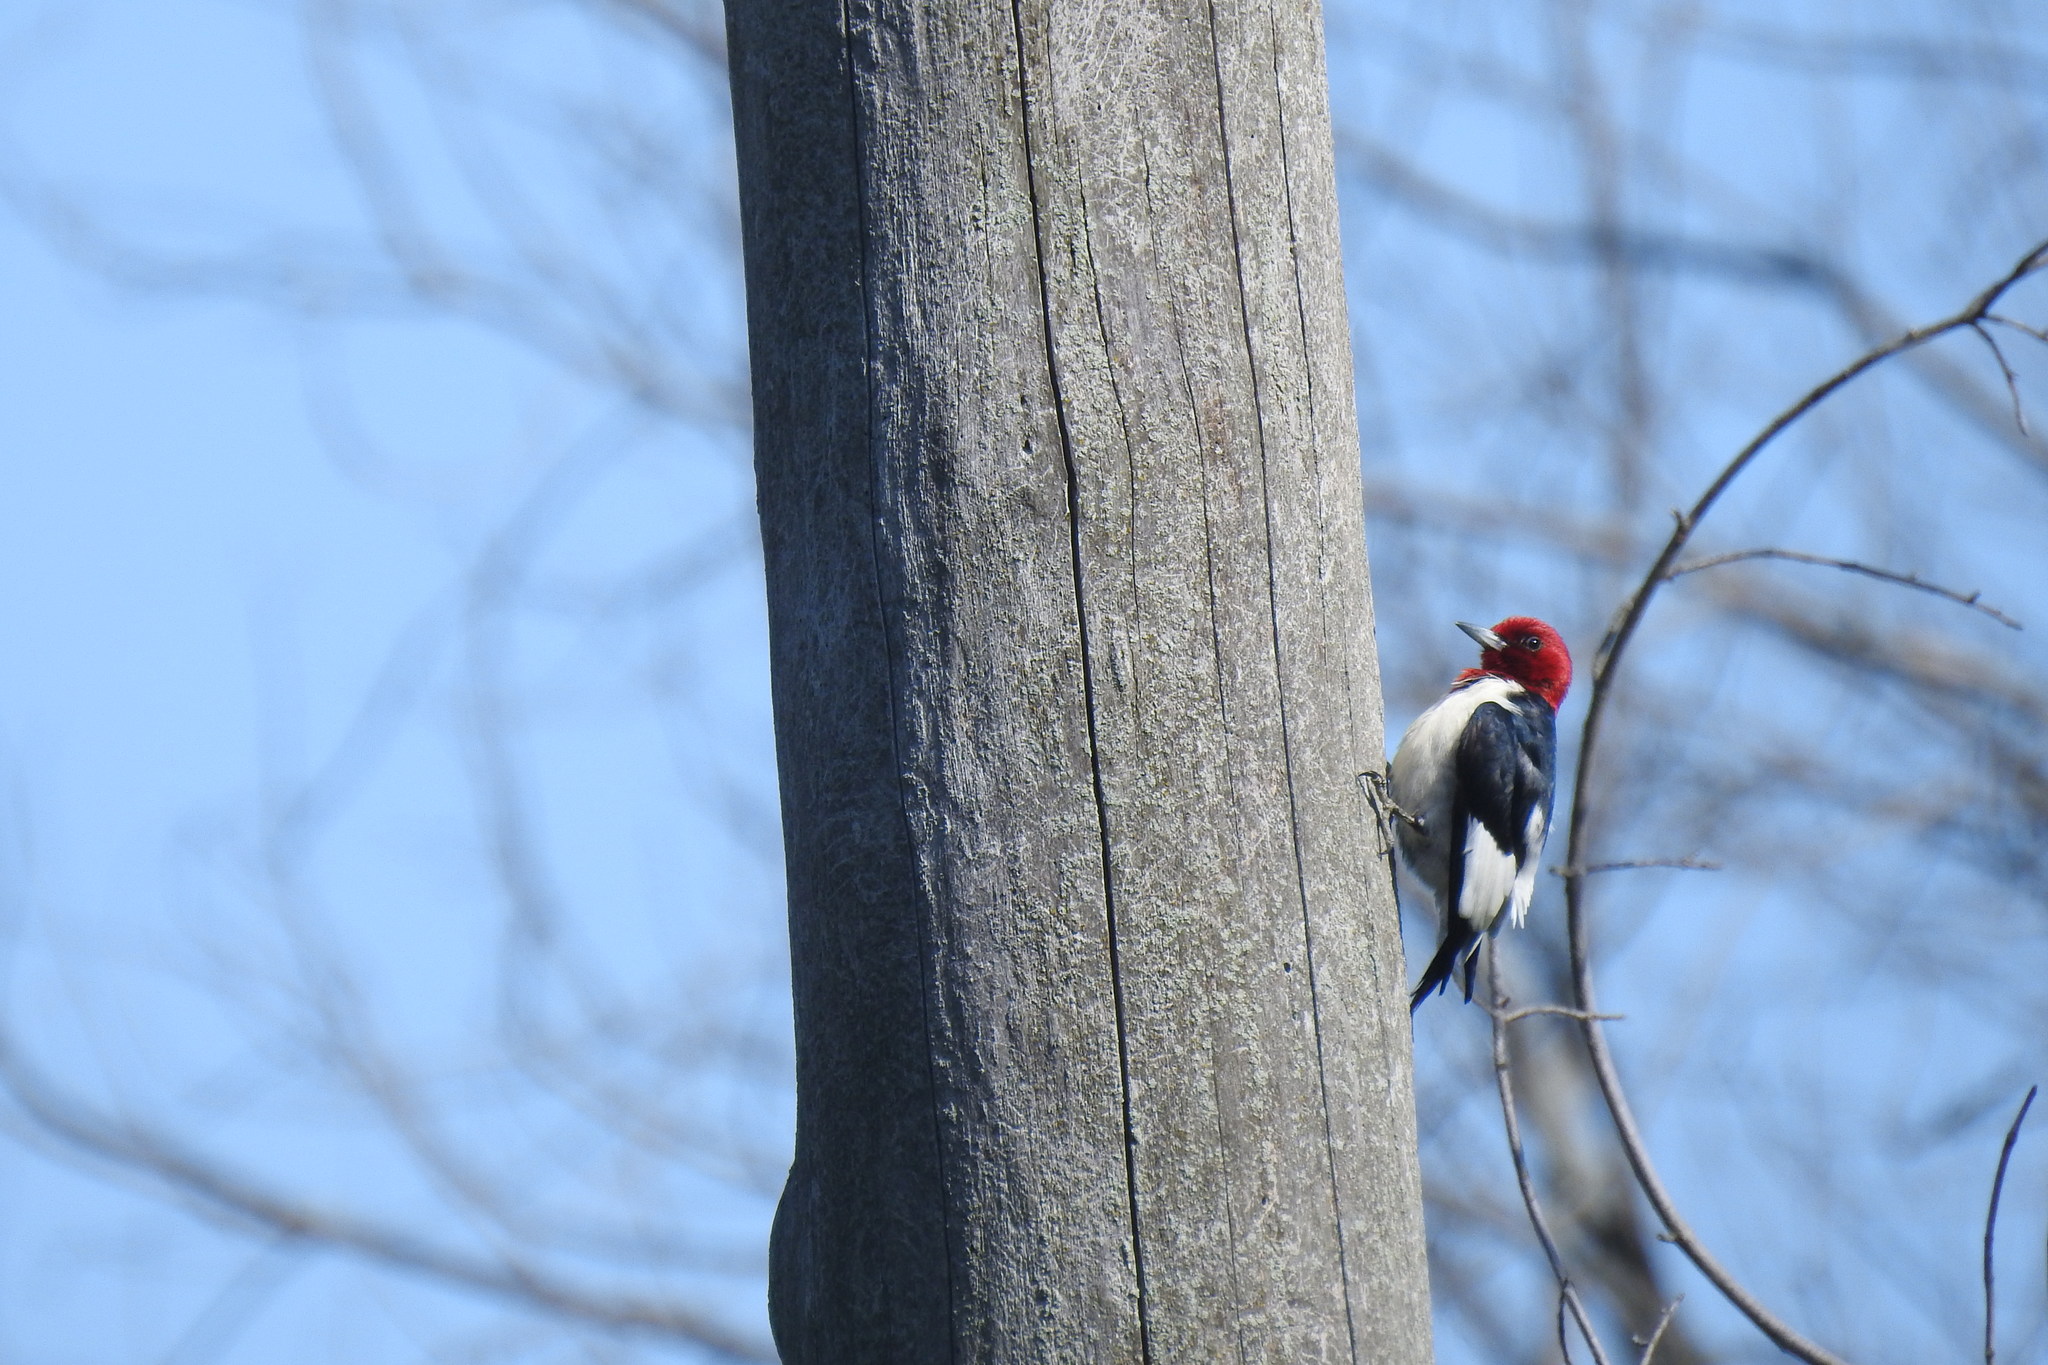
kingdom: Animalia
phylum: Chordata
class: Aves
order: Piciformes
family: Picidae
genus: Melanerpes
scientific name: Melanerpes erythrocephalus
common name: Red-headed woodpecker
